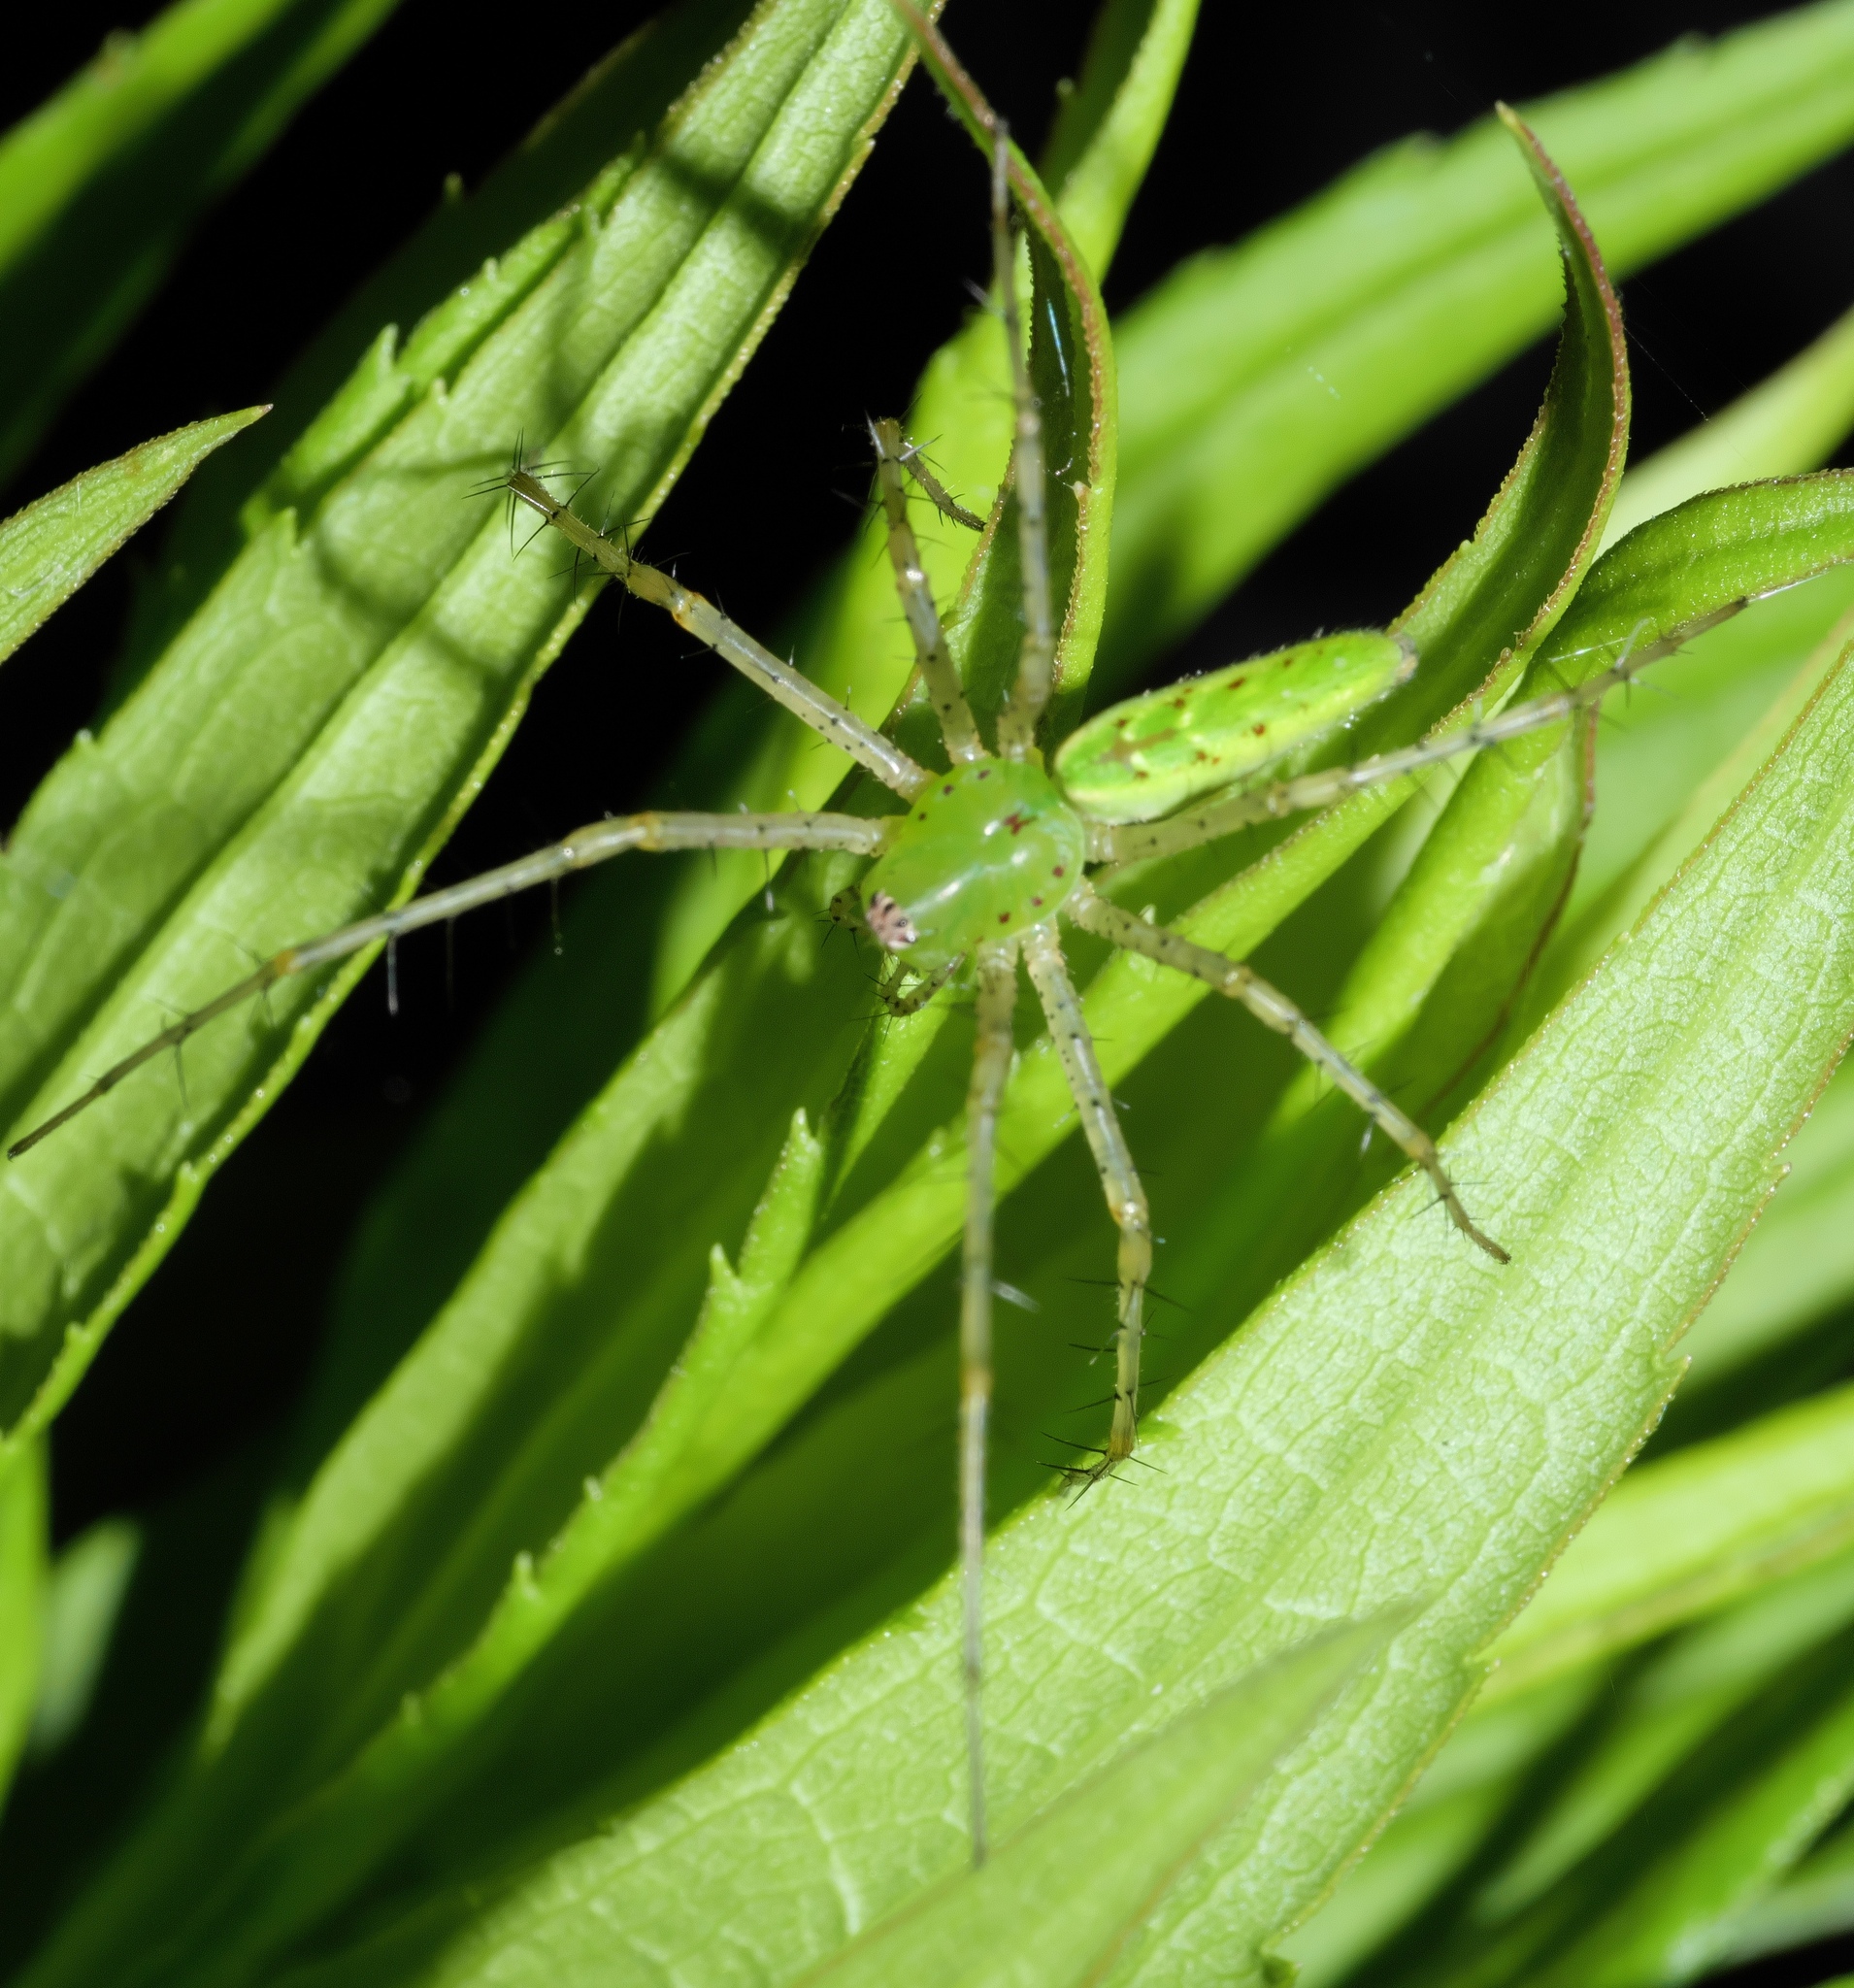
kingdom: Animalia
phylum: Arthropoda
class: Arachnida
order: Araneae
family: Oxyopidae
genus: Peucetia
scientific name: Peucetia viridans
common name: Lynx spiders
